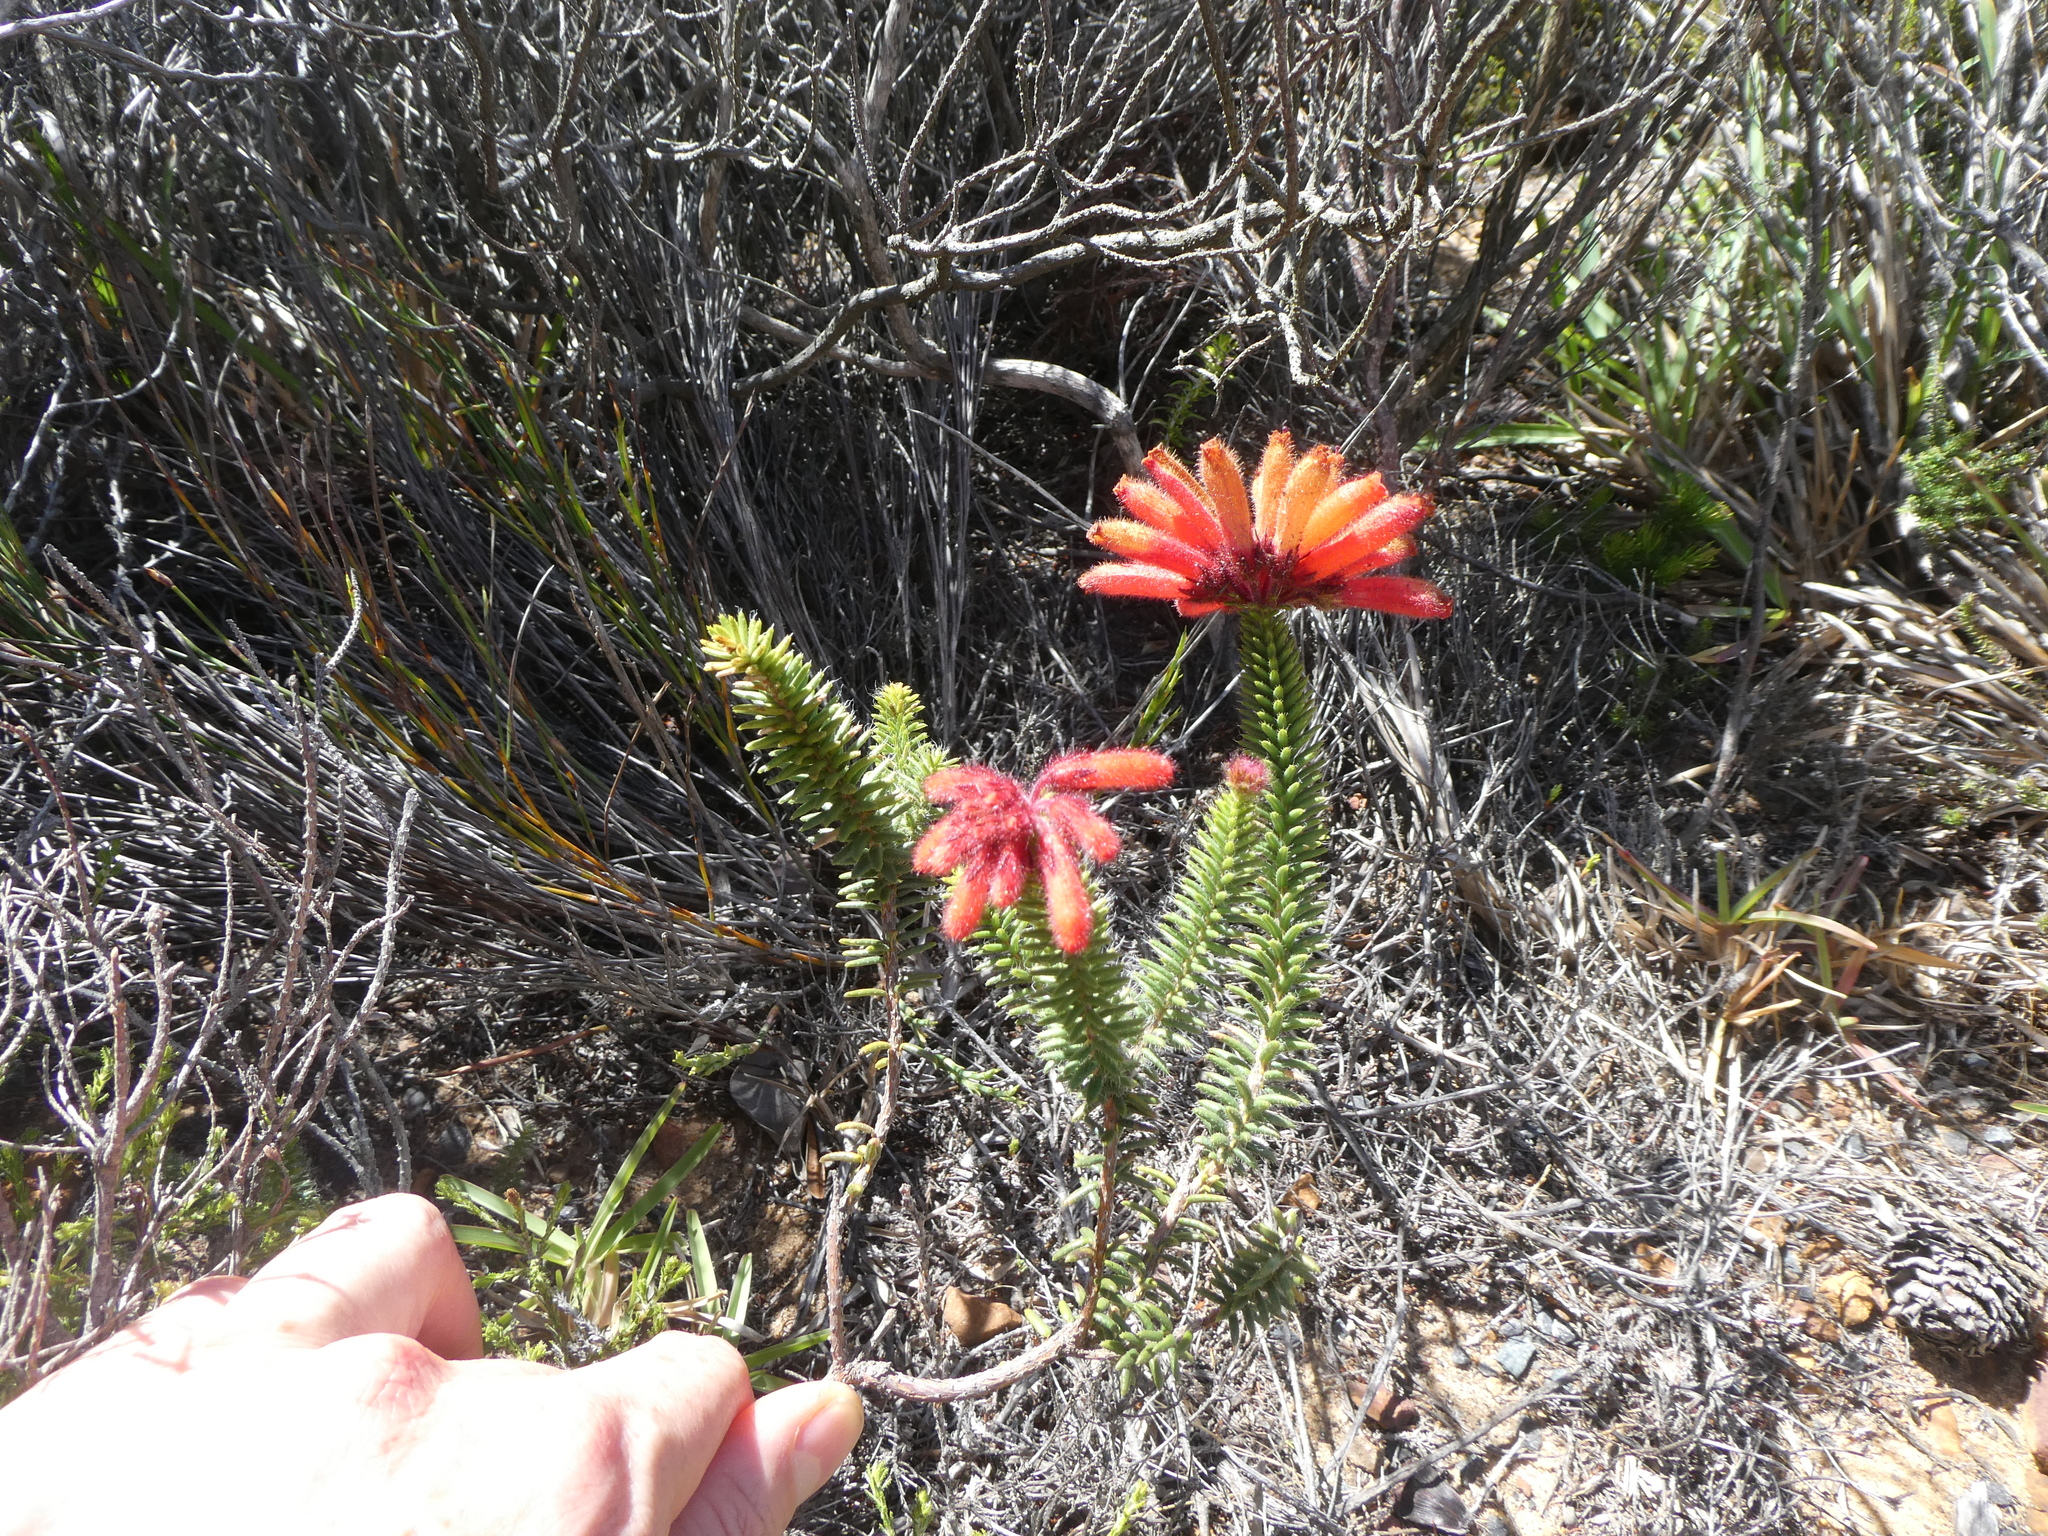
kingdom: Plantae
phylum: Tracheophyta
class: Magnoliopsida
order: Ericales
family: Ericaceae
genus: Erica
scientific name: Erica cerinthoides
